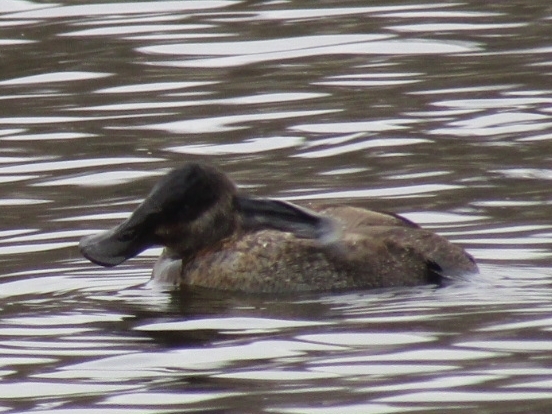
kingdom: Animalia
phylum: Chordata
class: Aves
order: Anseriformes
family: Anatidae
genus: Oxyura
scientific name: Oxyura jamaicensis
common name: Ruddy duck
